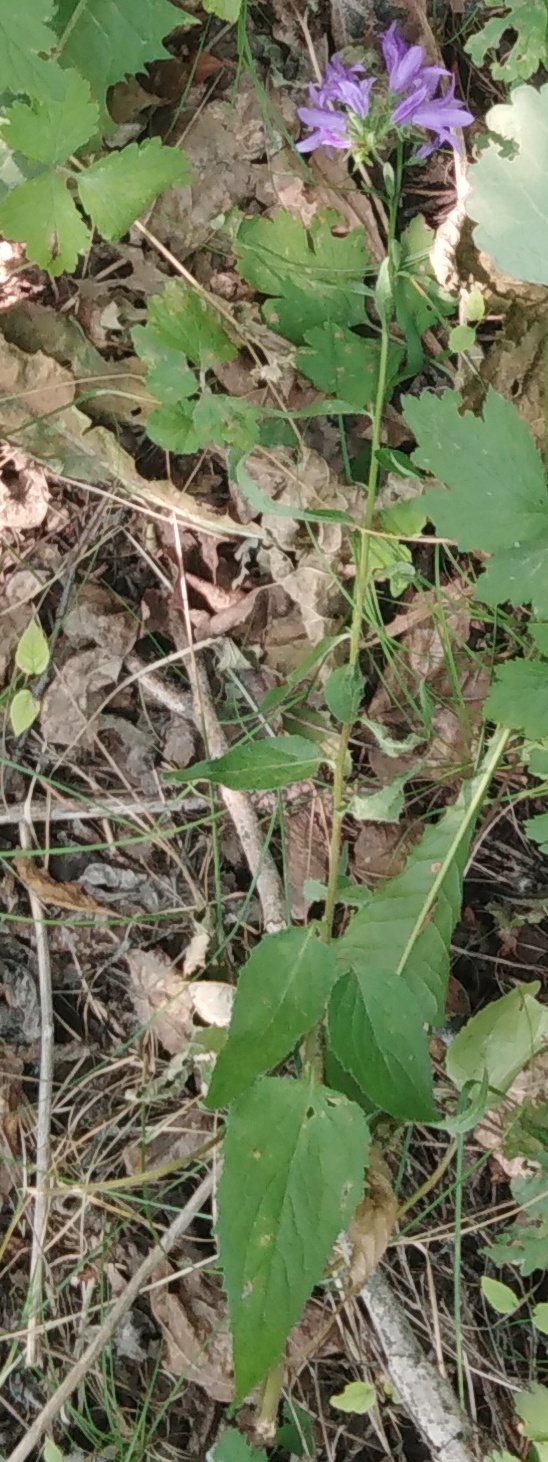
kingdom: Plantae
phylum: Tracheophyta
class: Magnoliopsida
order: Asterales
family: Campanulaceae
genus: Campanula
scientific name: Campanula glomerata
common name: Clustered bellflower
